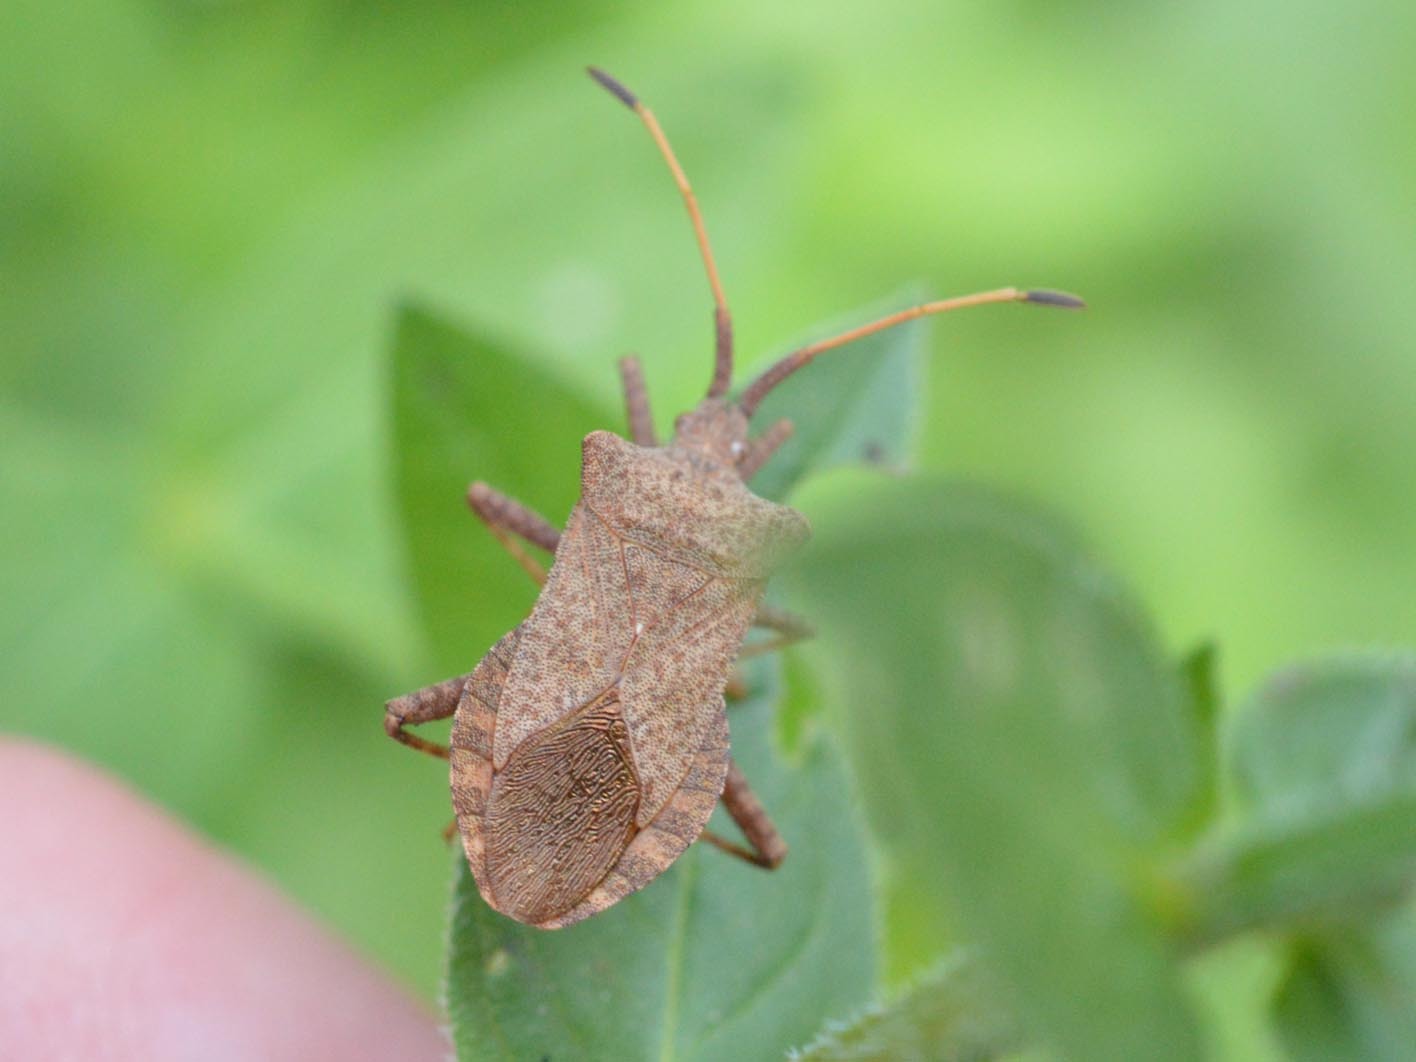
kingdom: Animalia
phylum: Arthropoda
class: Insecta
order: Hemiptera
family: Coreidae
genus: Coreus
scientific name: Coreus marginatus
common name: Dock bug
